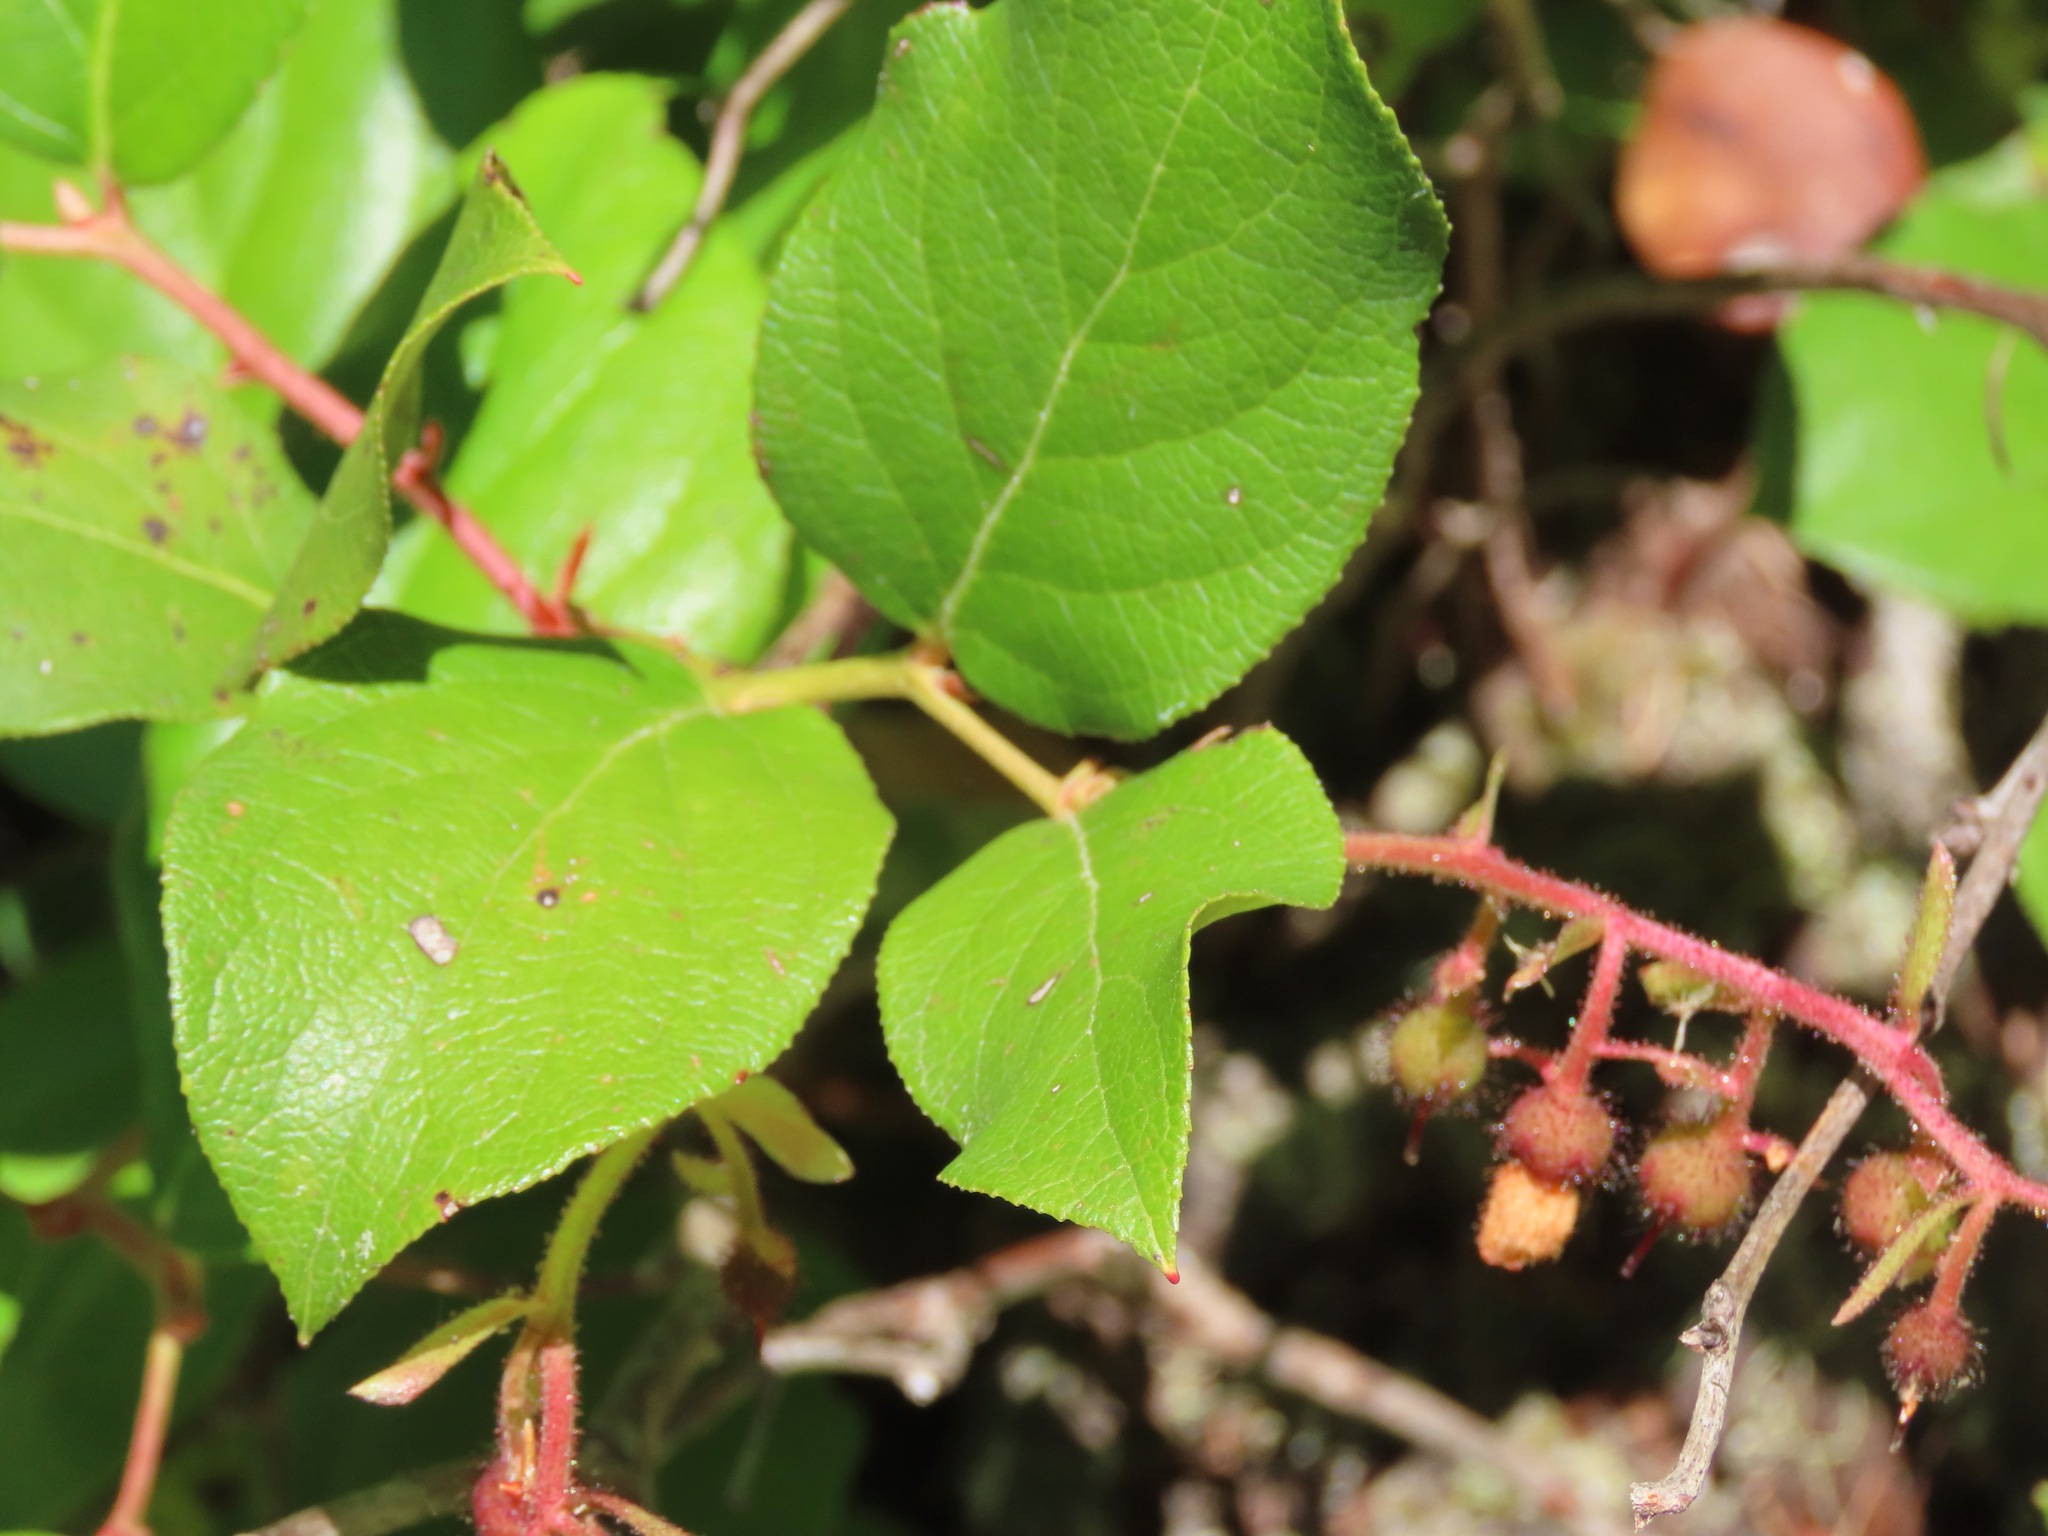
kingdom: Plantae
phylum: Tracheophyta
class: Magnoliopsida
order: Ericales
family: Ericaceae
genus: Gaultheria
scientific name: Gaultheria shallon
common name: Shallon
